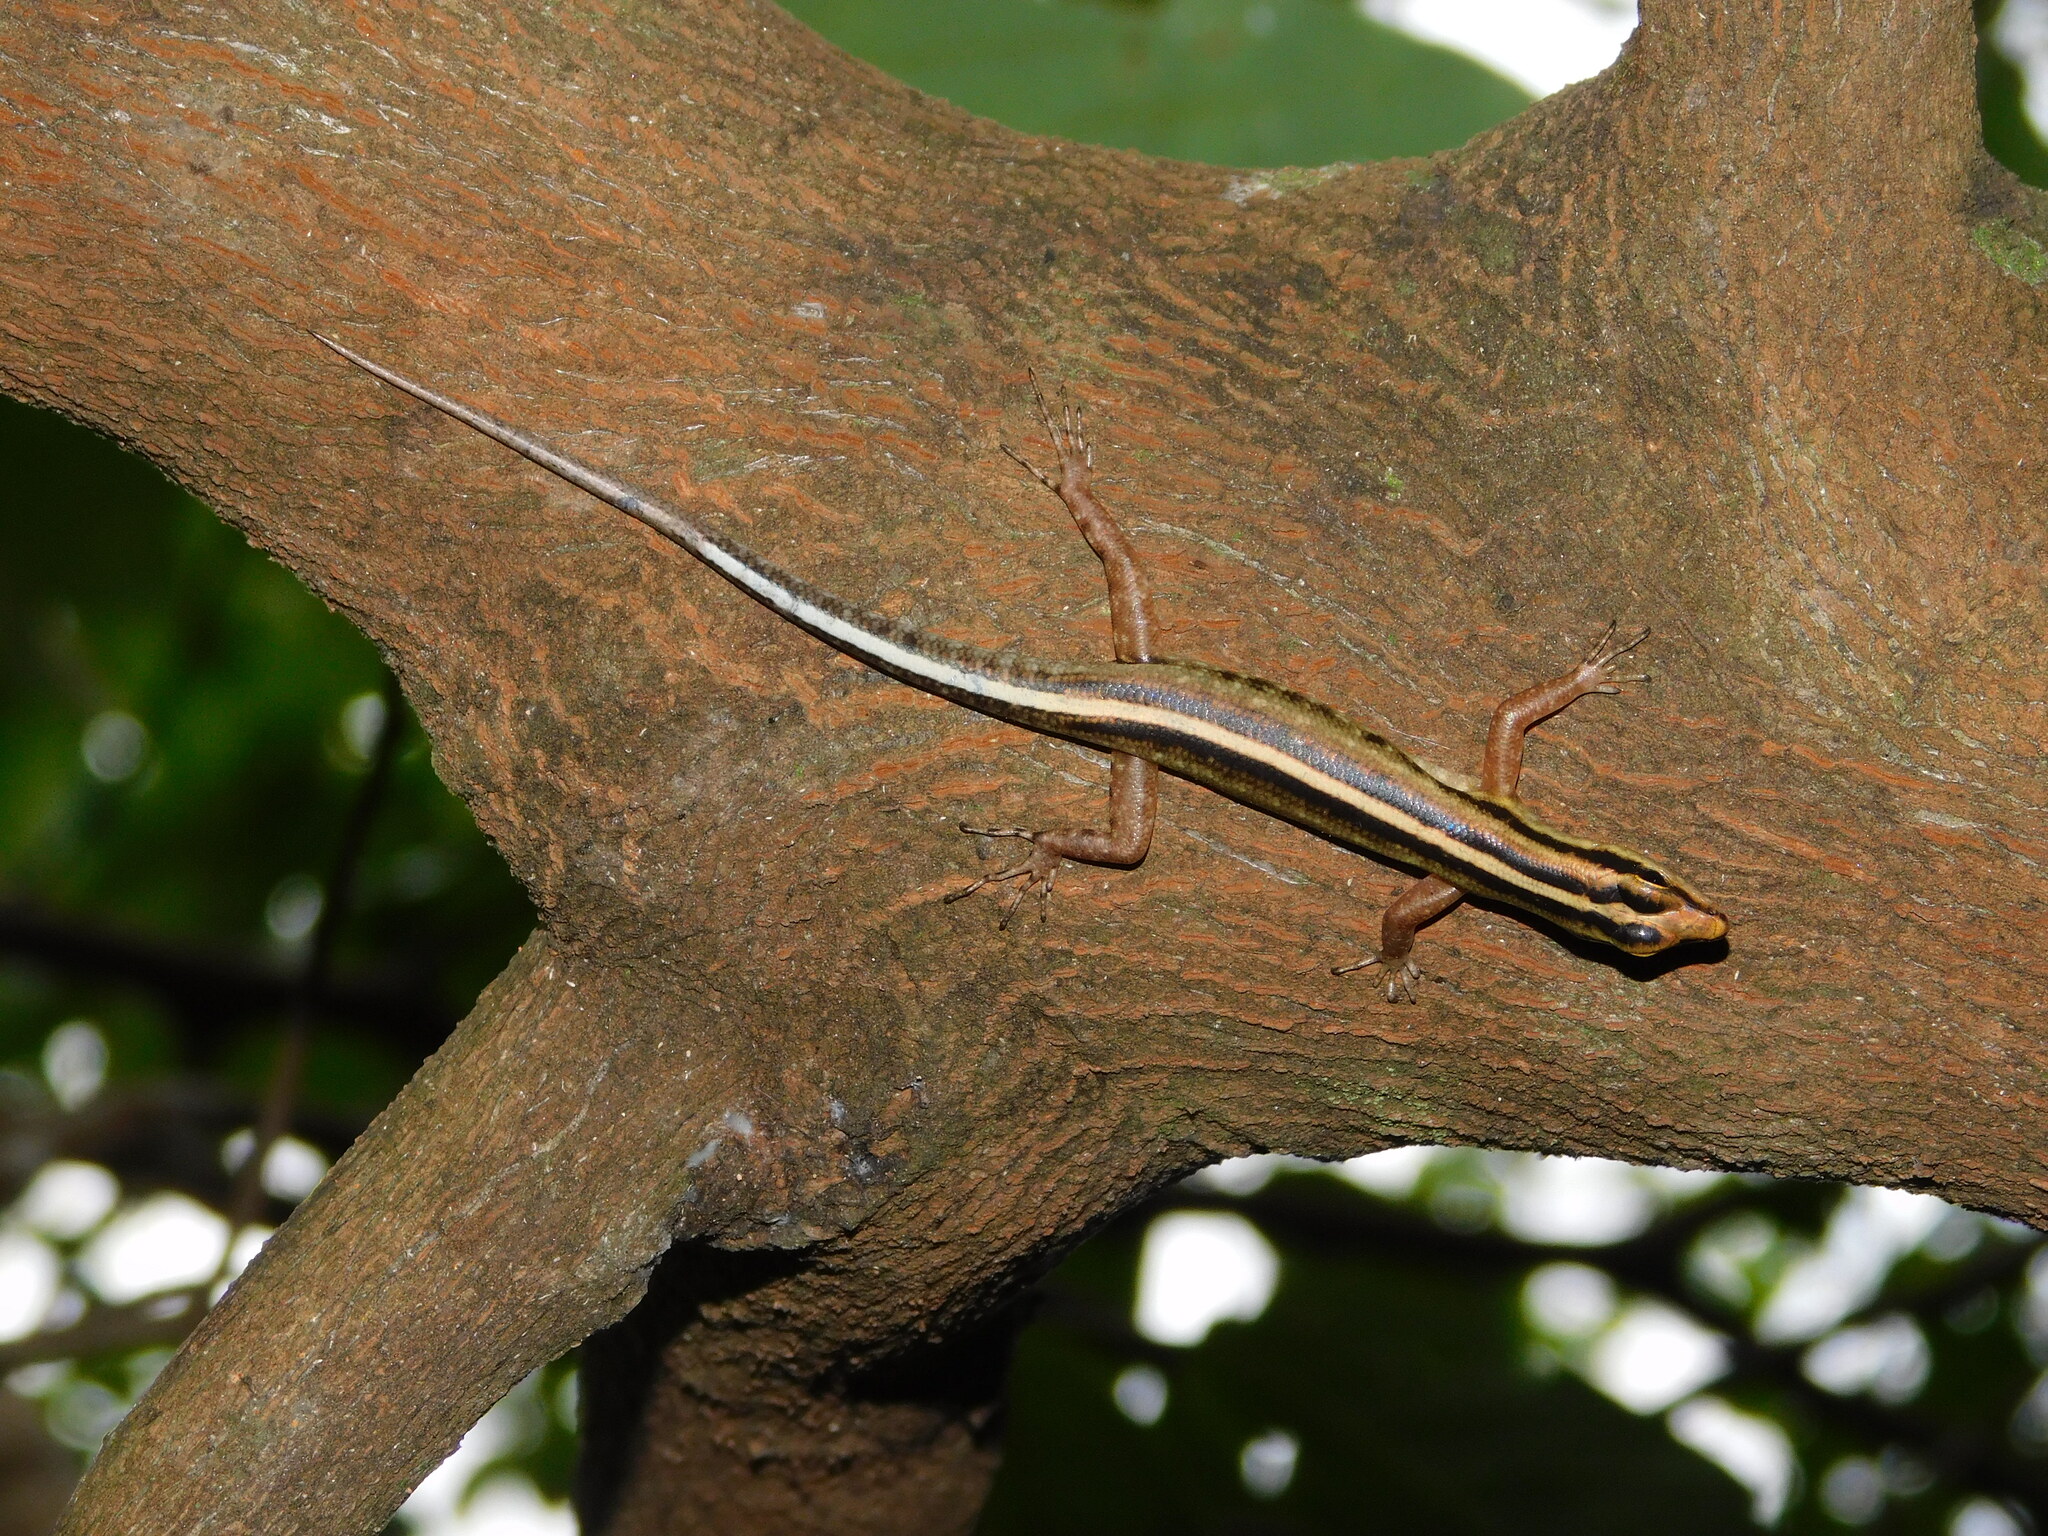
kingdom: Animalia
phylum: Chordata
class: Squamata
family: Scincidae
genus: Sphenomorphus
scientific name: Sphenomorphus sanctus
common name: Java forest skink
